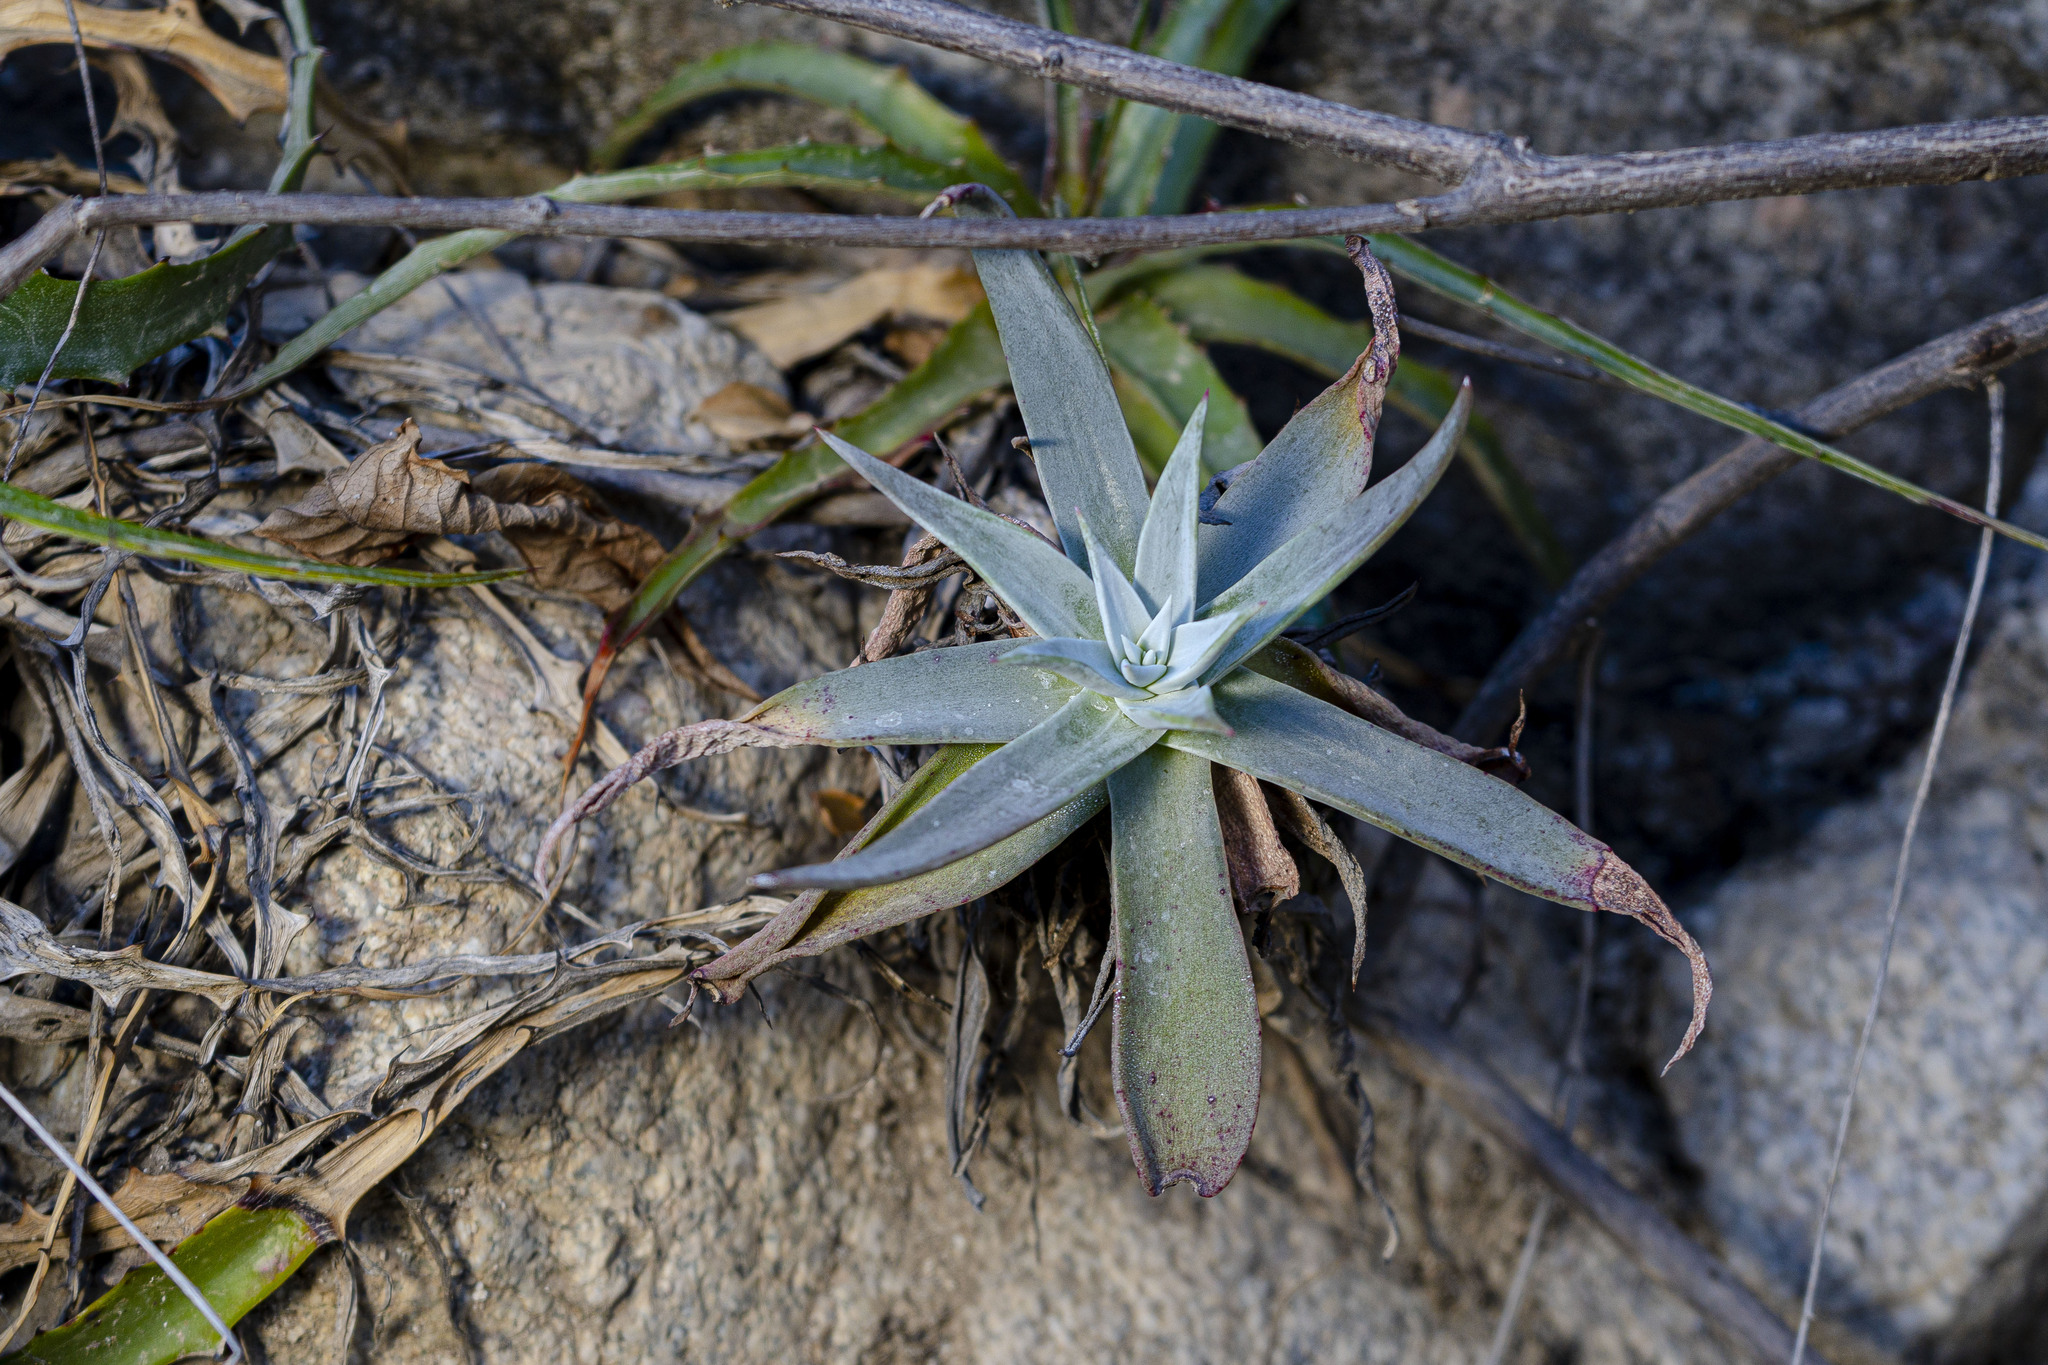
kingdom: Plantae
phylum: Tracheophyta
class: Magnoliopsida
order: Saxifragales
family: Crassulaceae
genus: Dudleya
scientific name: Dudleya nubigena
